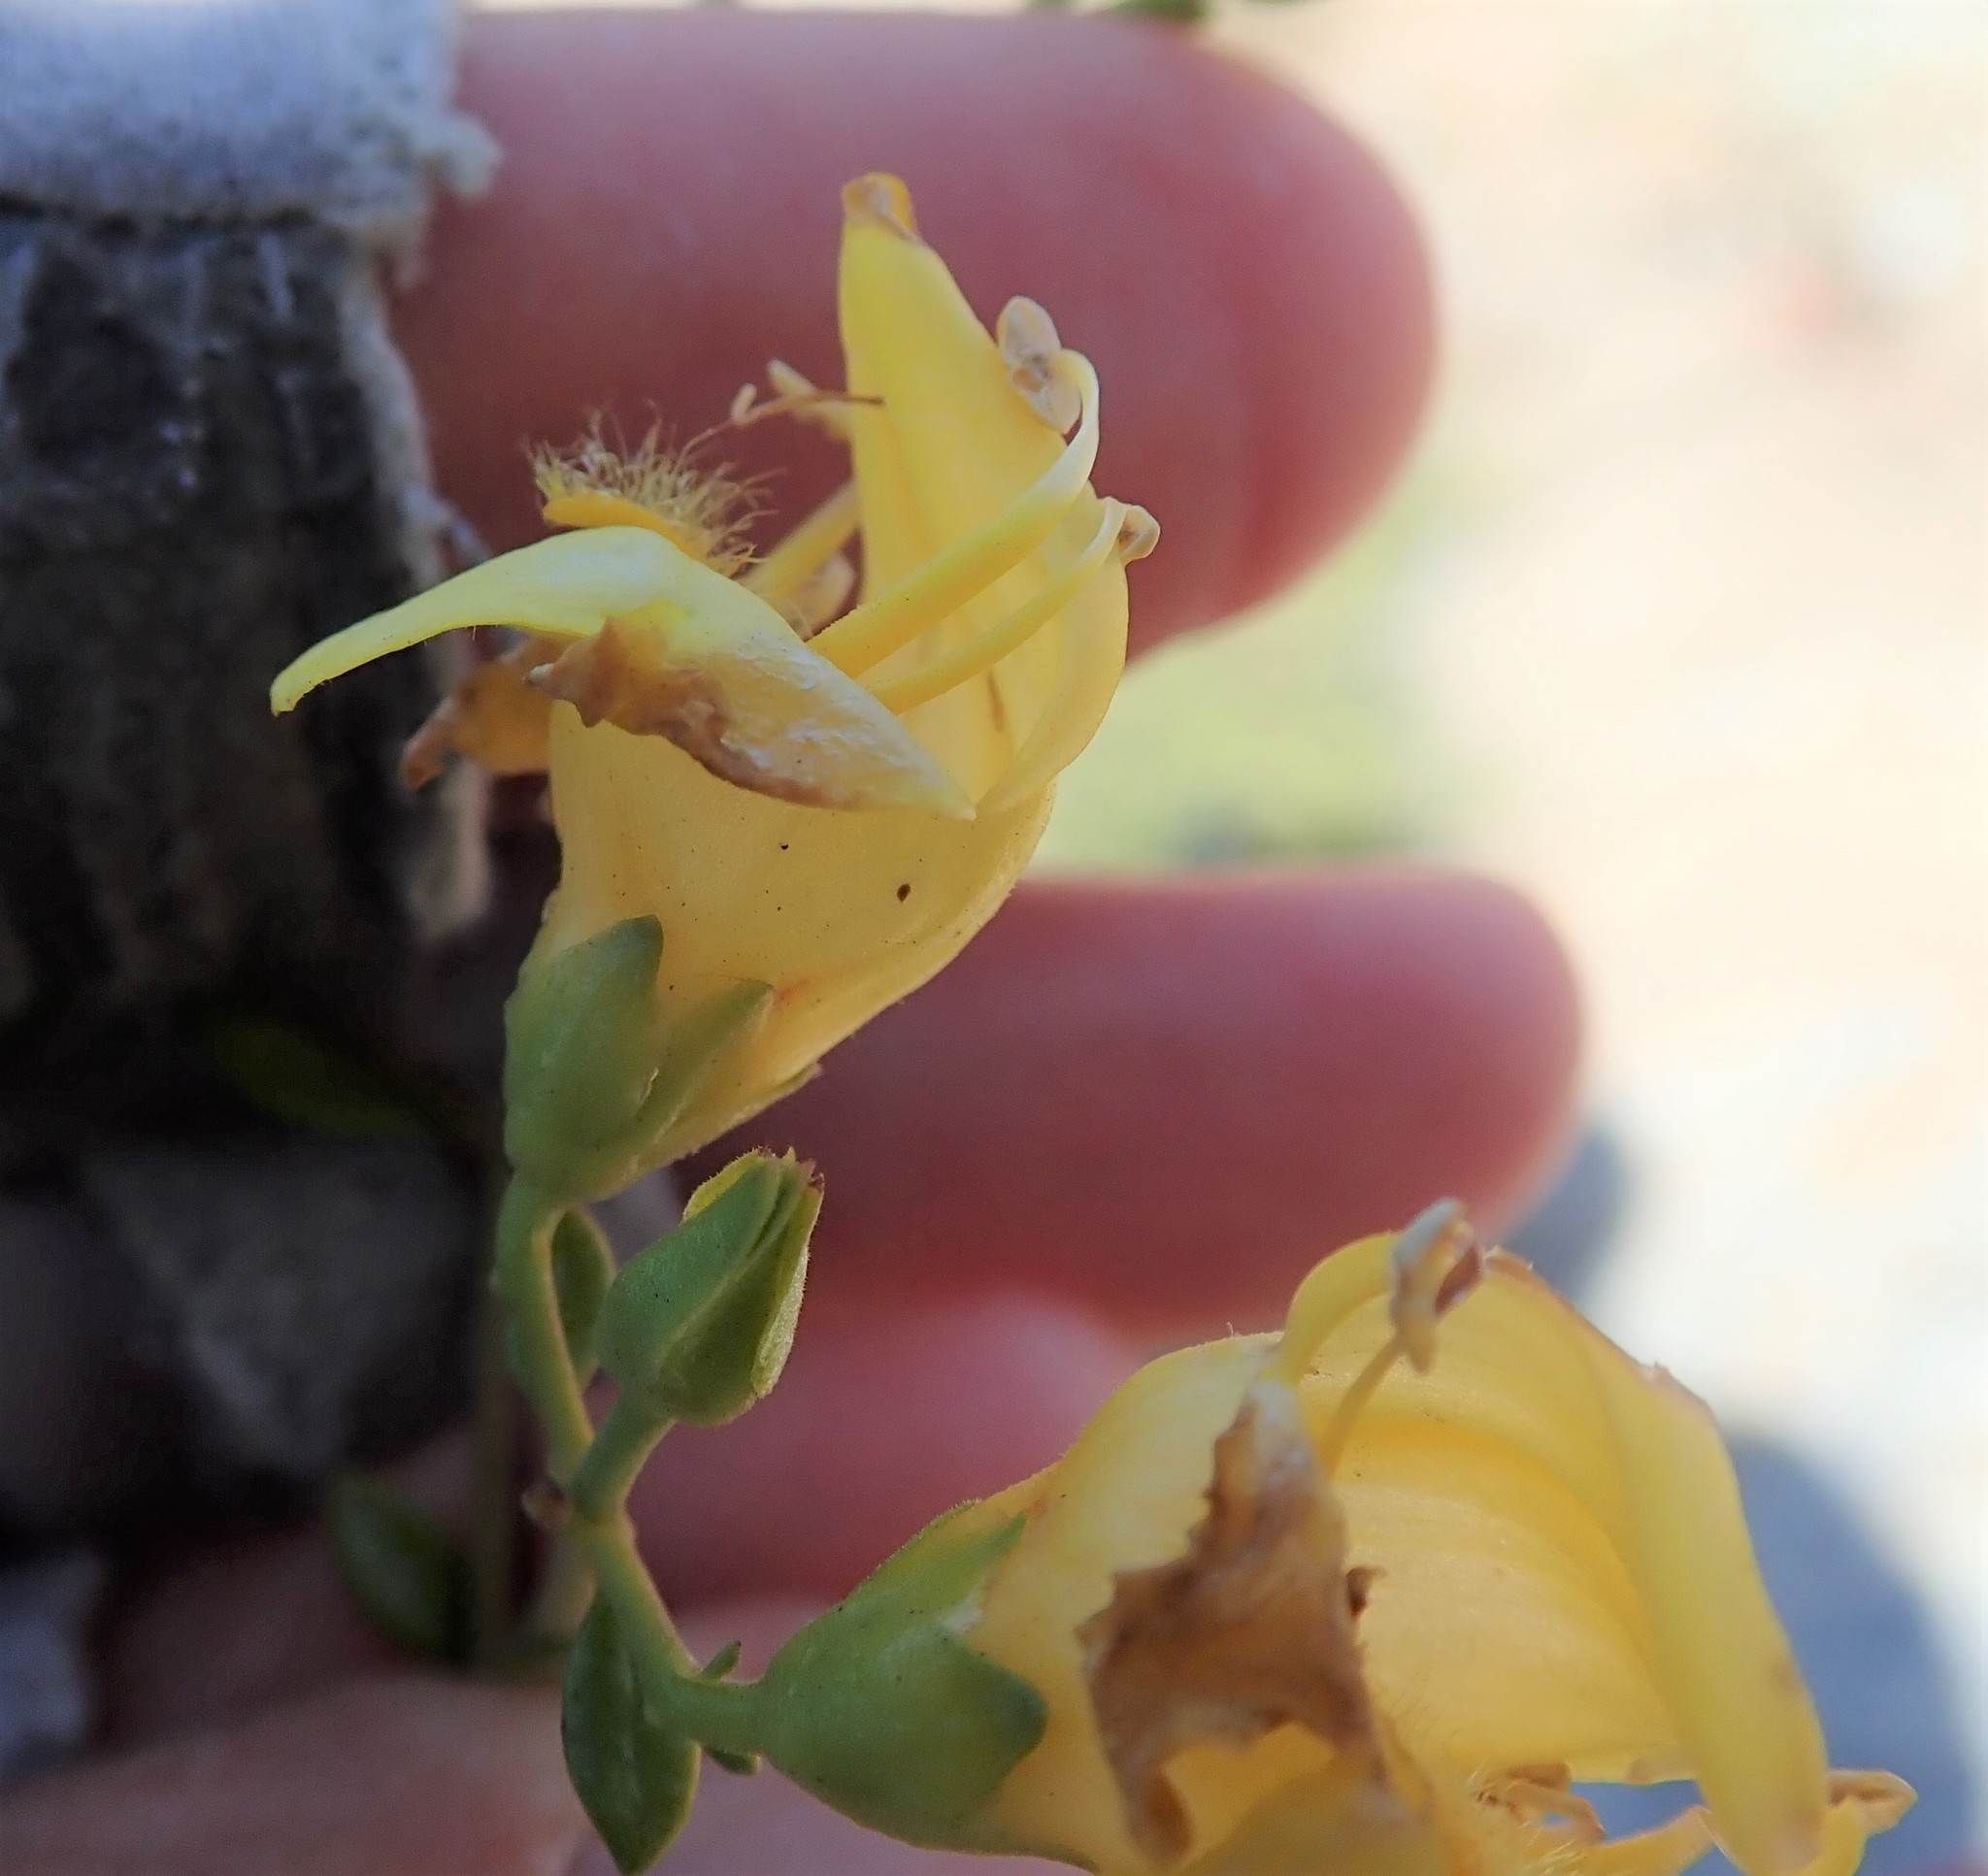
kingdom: Plantae
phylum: Tracheophyta
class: Magnoliopsida
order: Lamiales
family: Plantaginaceae
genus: Keckiella
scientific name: Keckiella antirrhinoides
